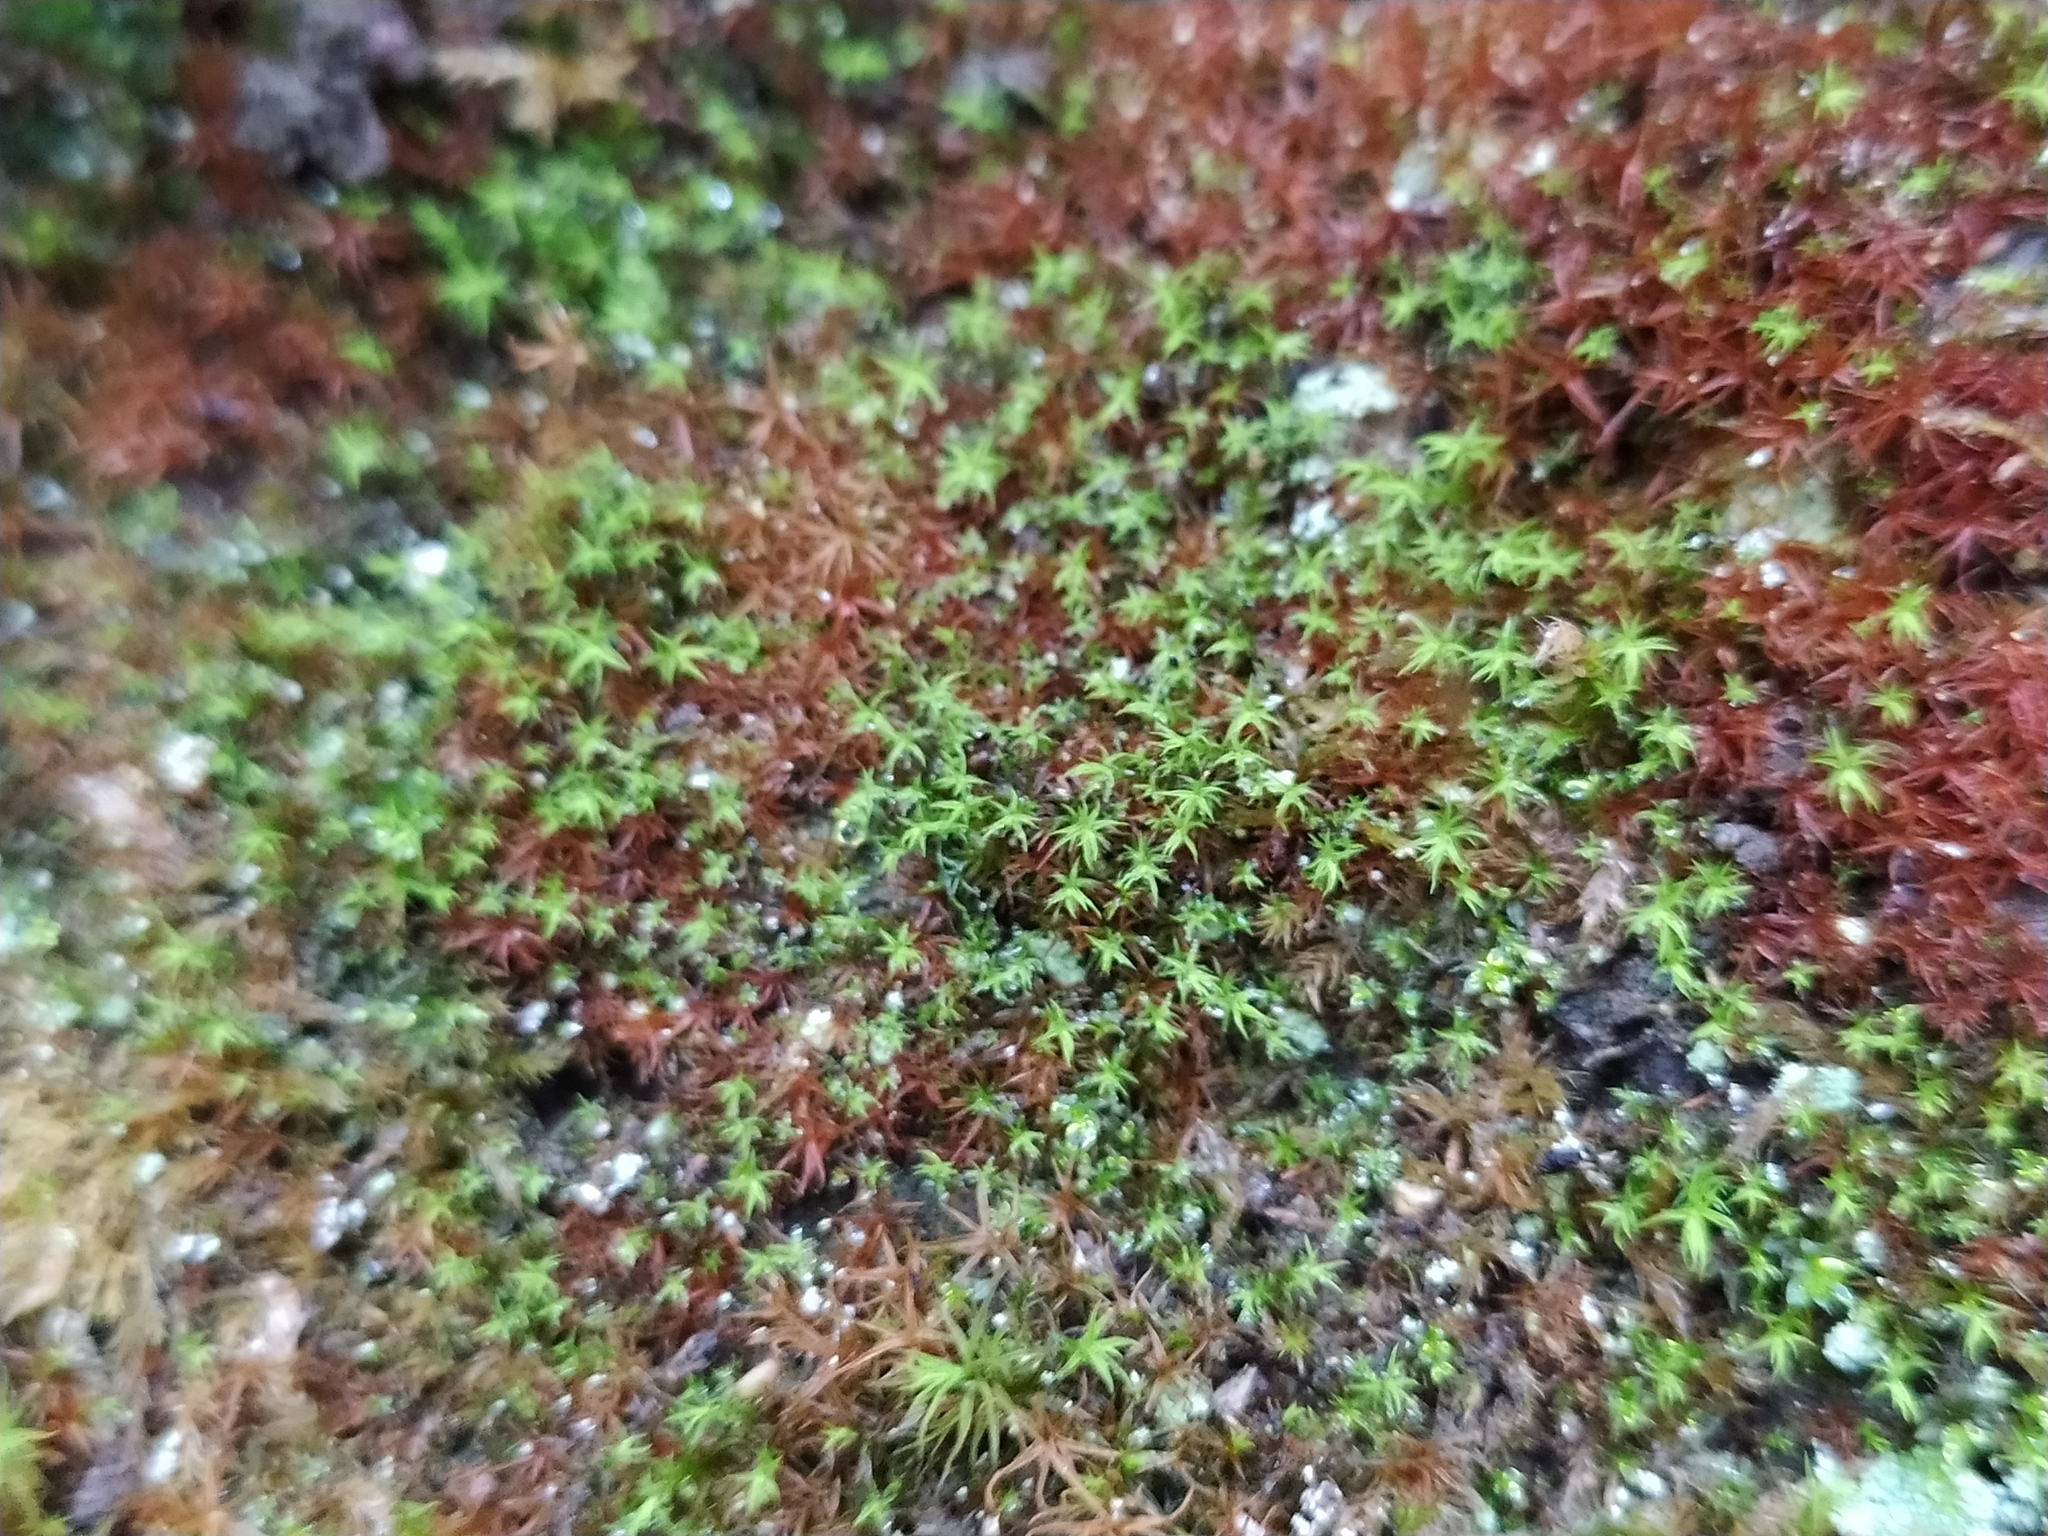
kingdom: Plantae
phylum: Bryophyta
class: Bryopsida
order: Pottiales
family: Pottiaceae
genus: Bryoerythrophyllum
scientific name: Bryoerythrophyllum recurvirostrum
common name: Red beard moss
